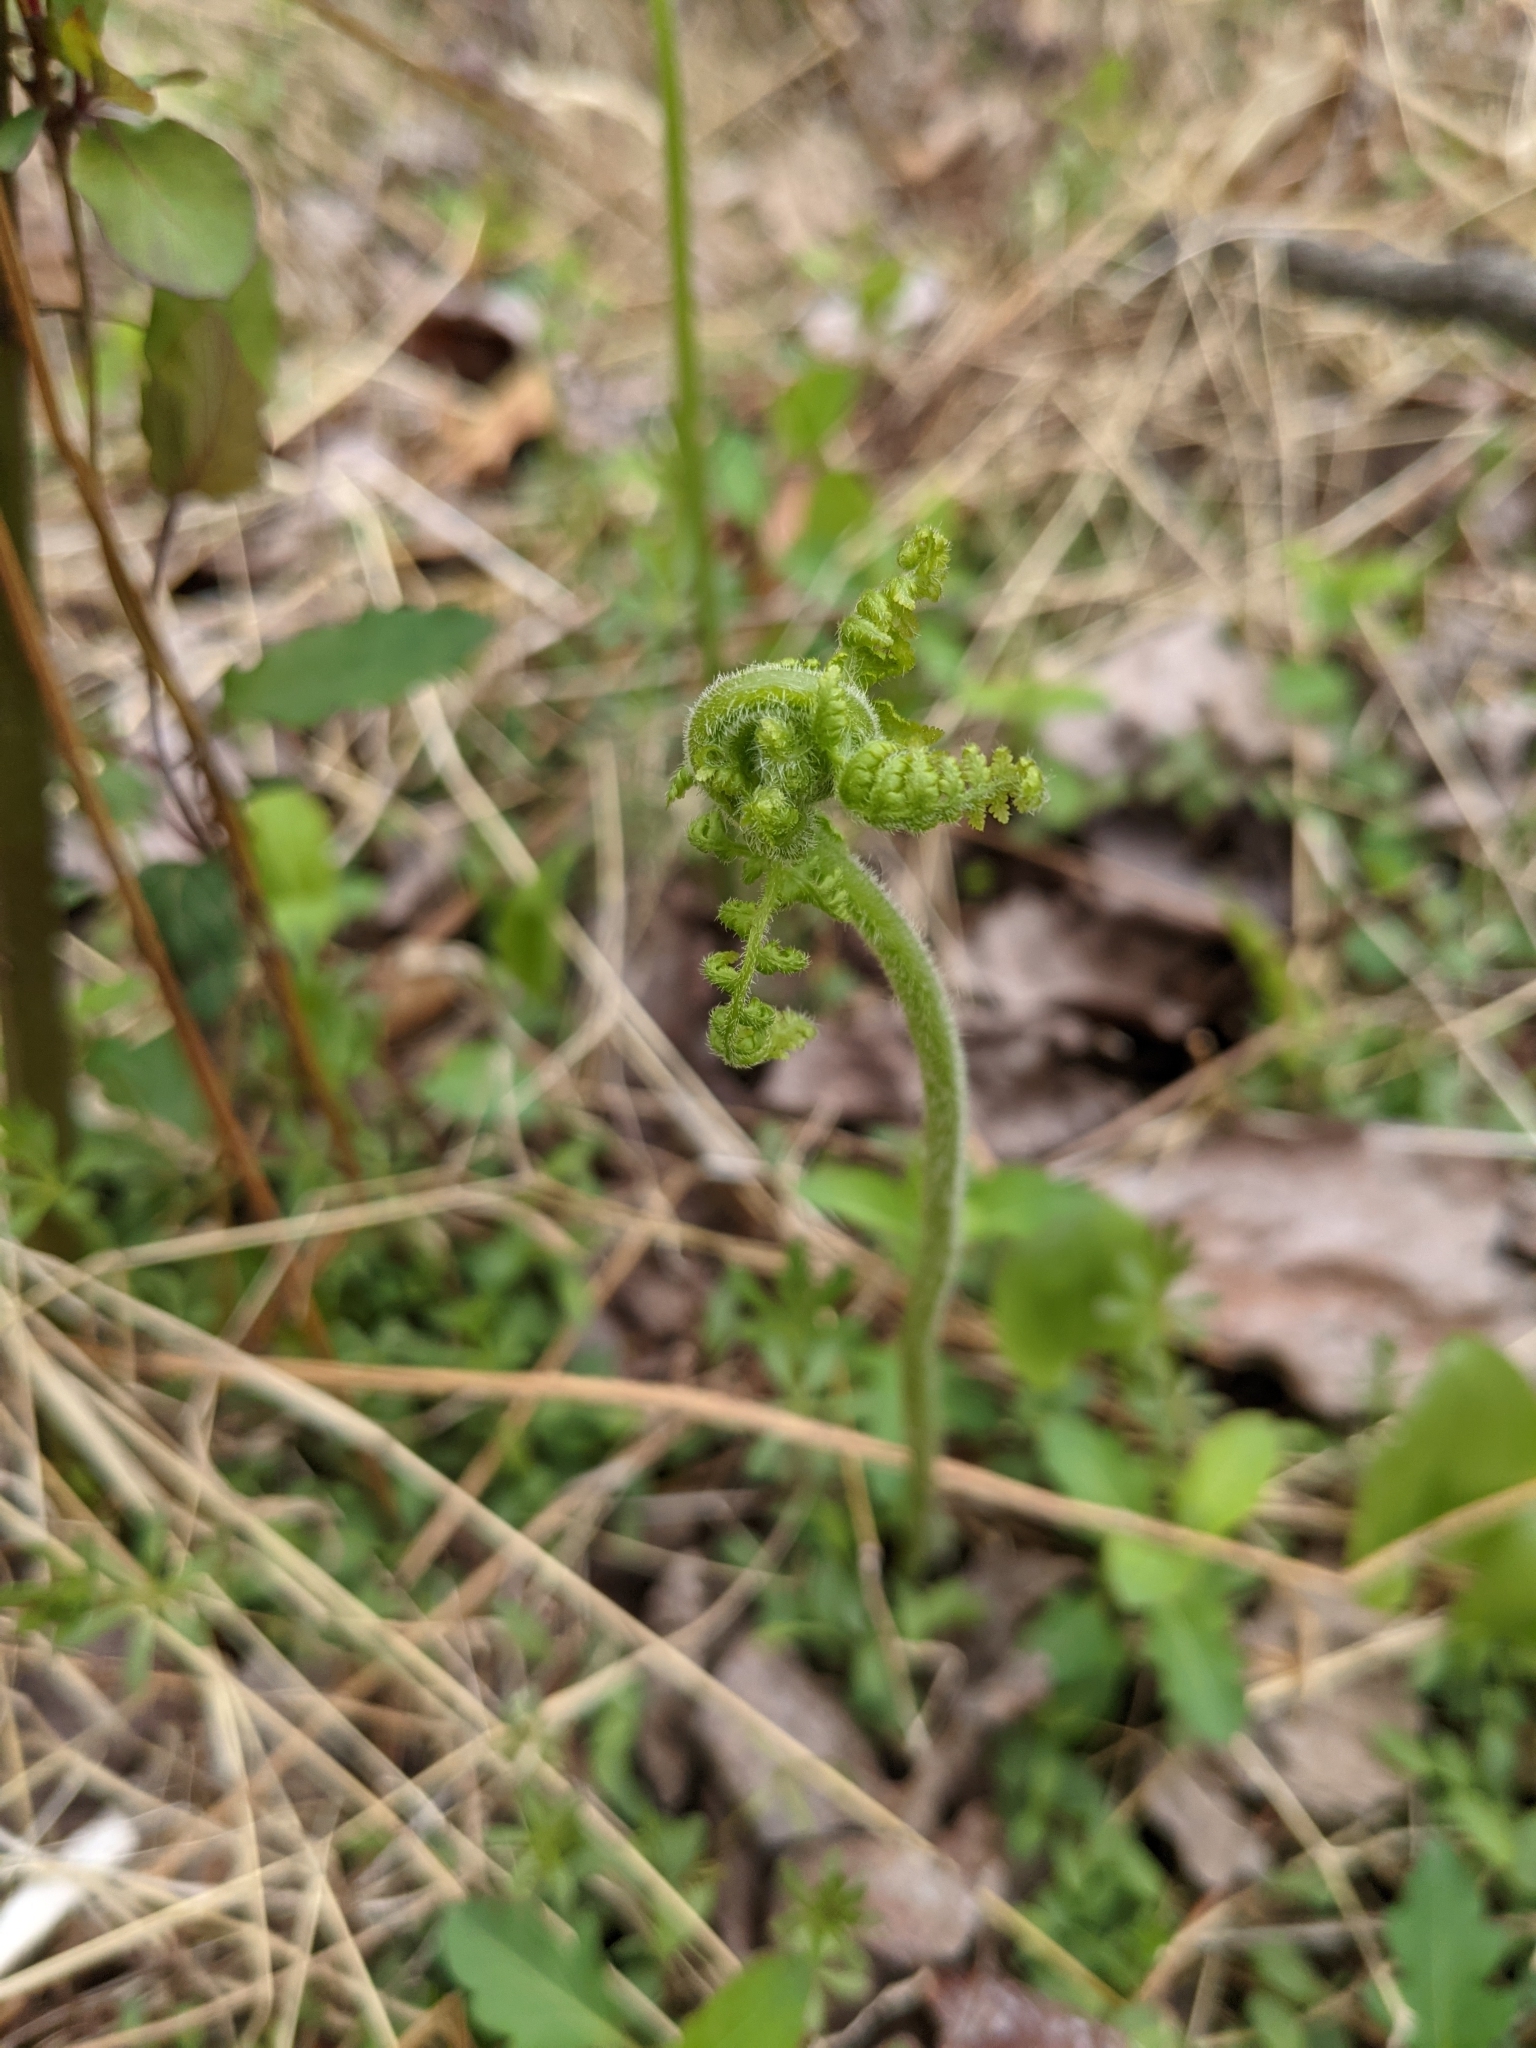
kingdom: Plantae
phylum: Tracheophyta
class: Polypodiopsida
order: Polypodiales
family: Dennstaedtiaceae
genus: Sitobolium
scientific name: Sitobolium punctilobum
